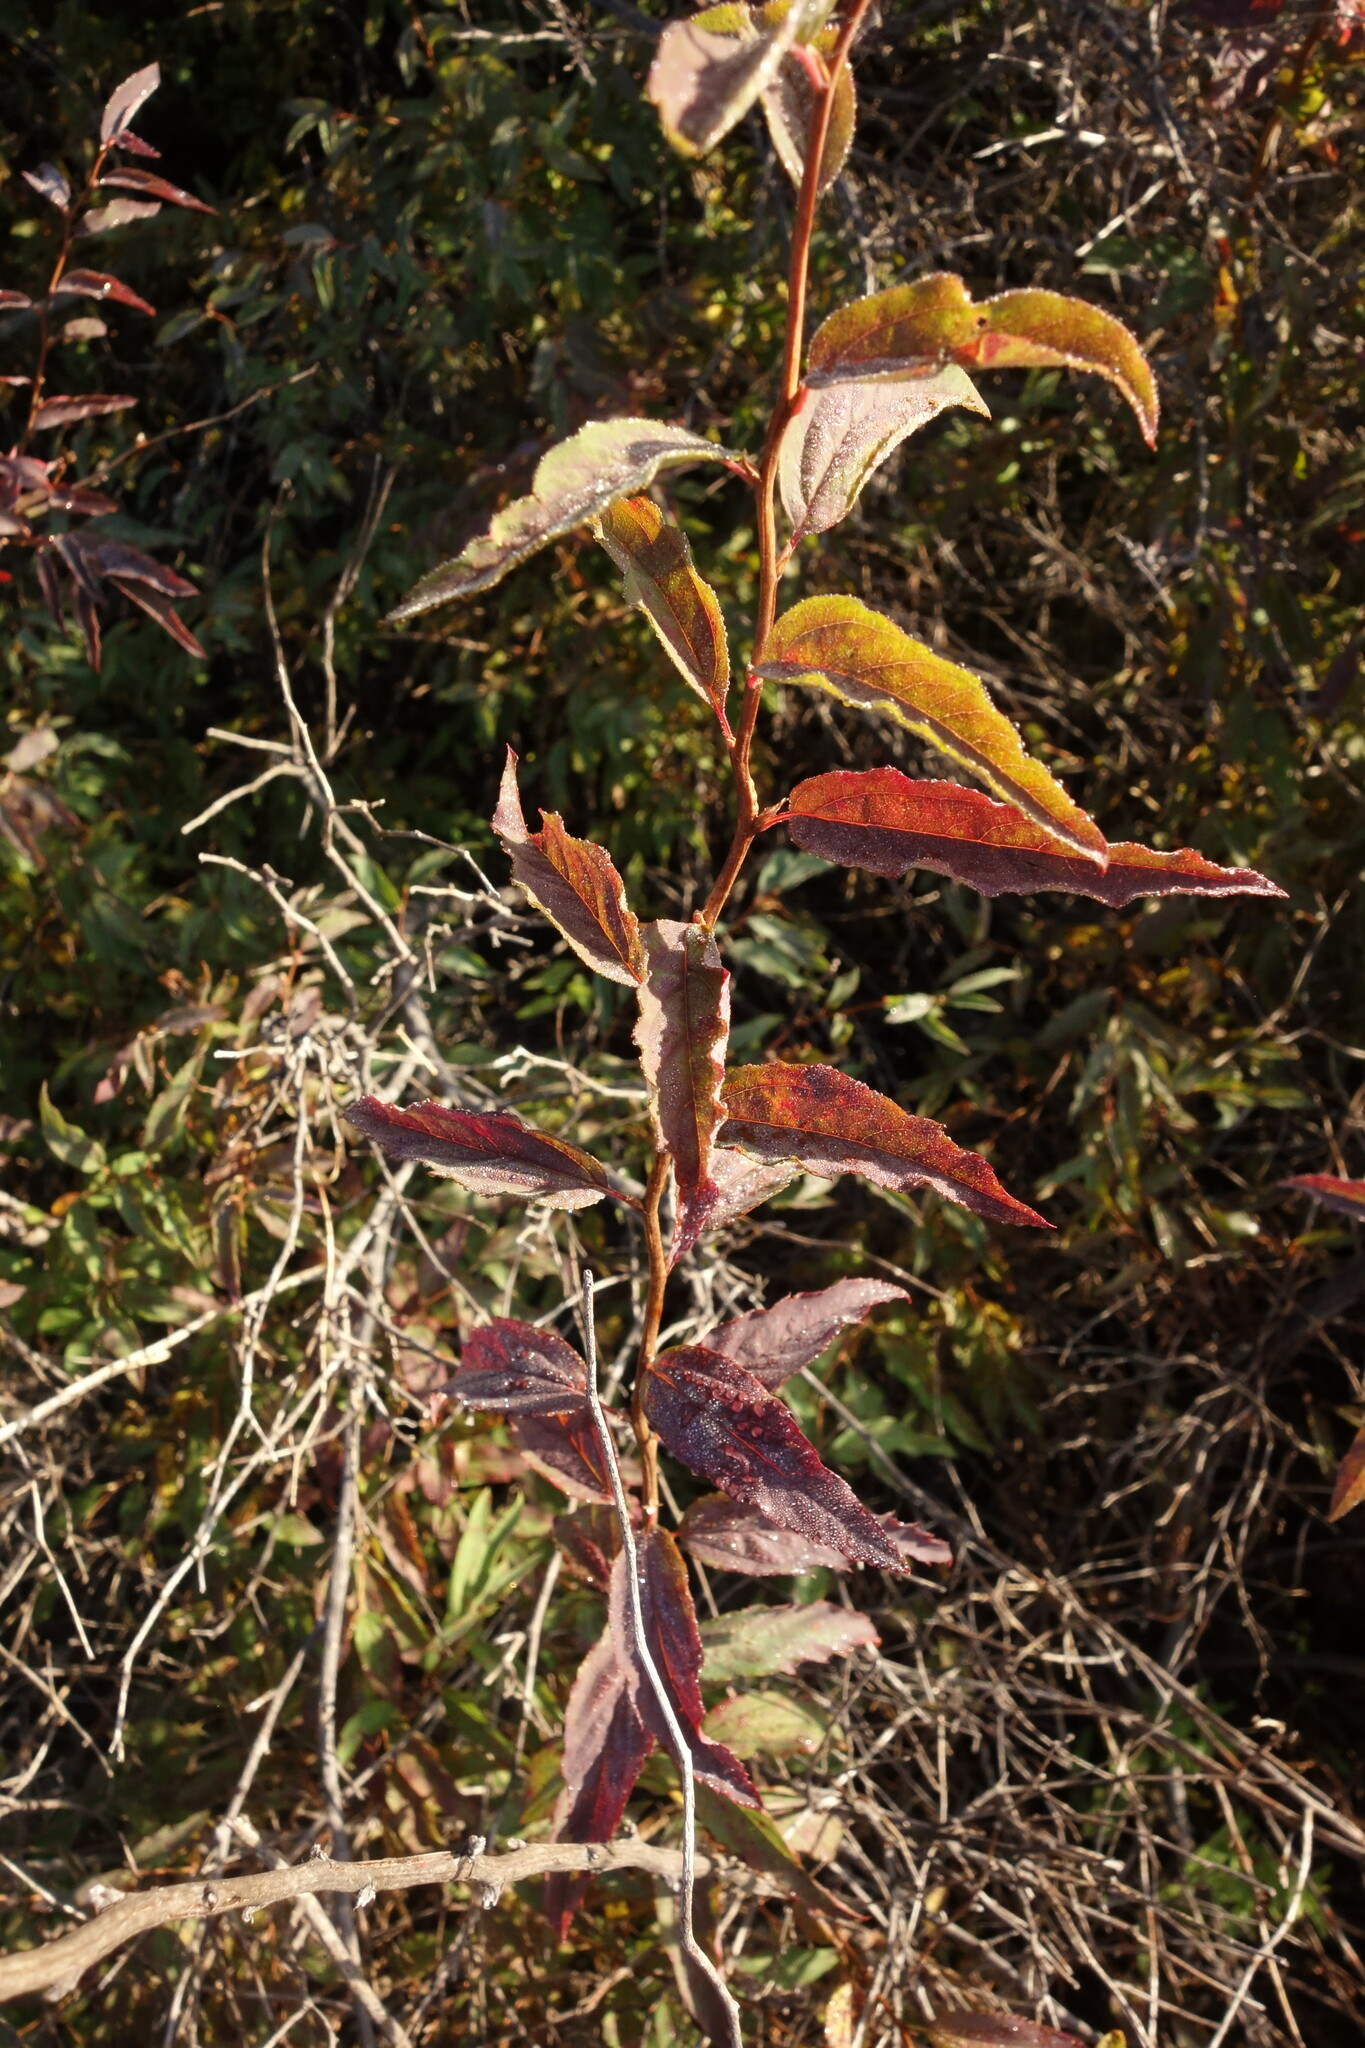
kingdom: Plantae
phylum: Tracheophyta
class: Magnoliopsida
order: Rosales
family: Rosaceae
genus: Spiraea
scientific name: Spiraea flexuosa
